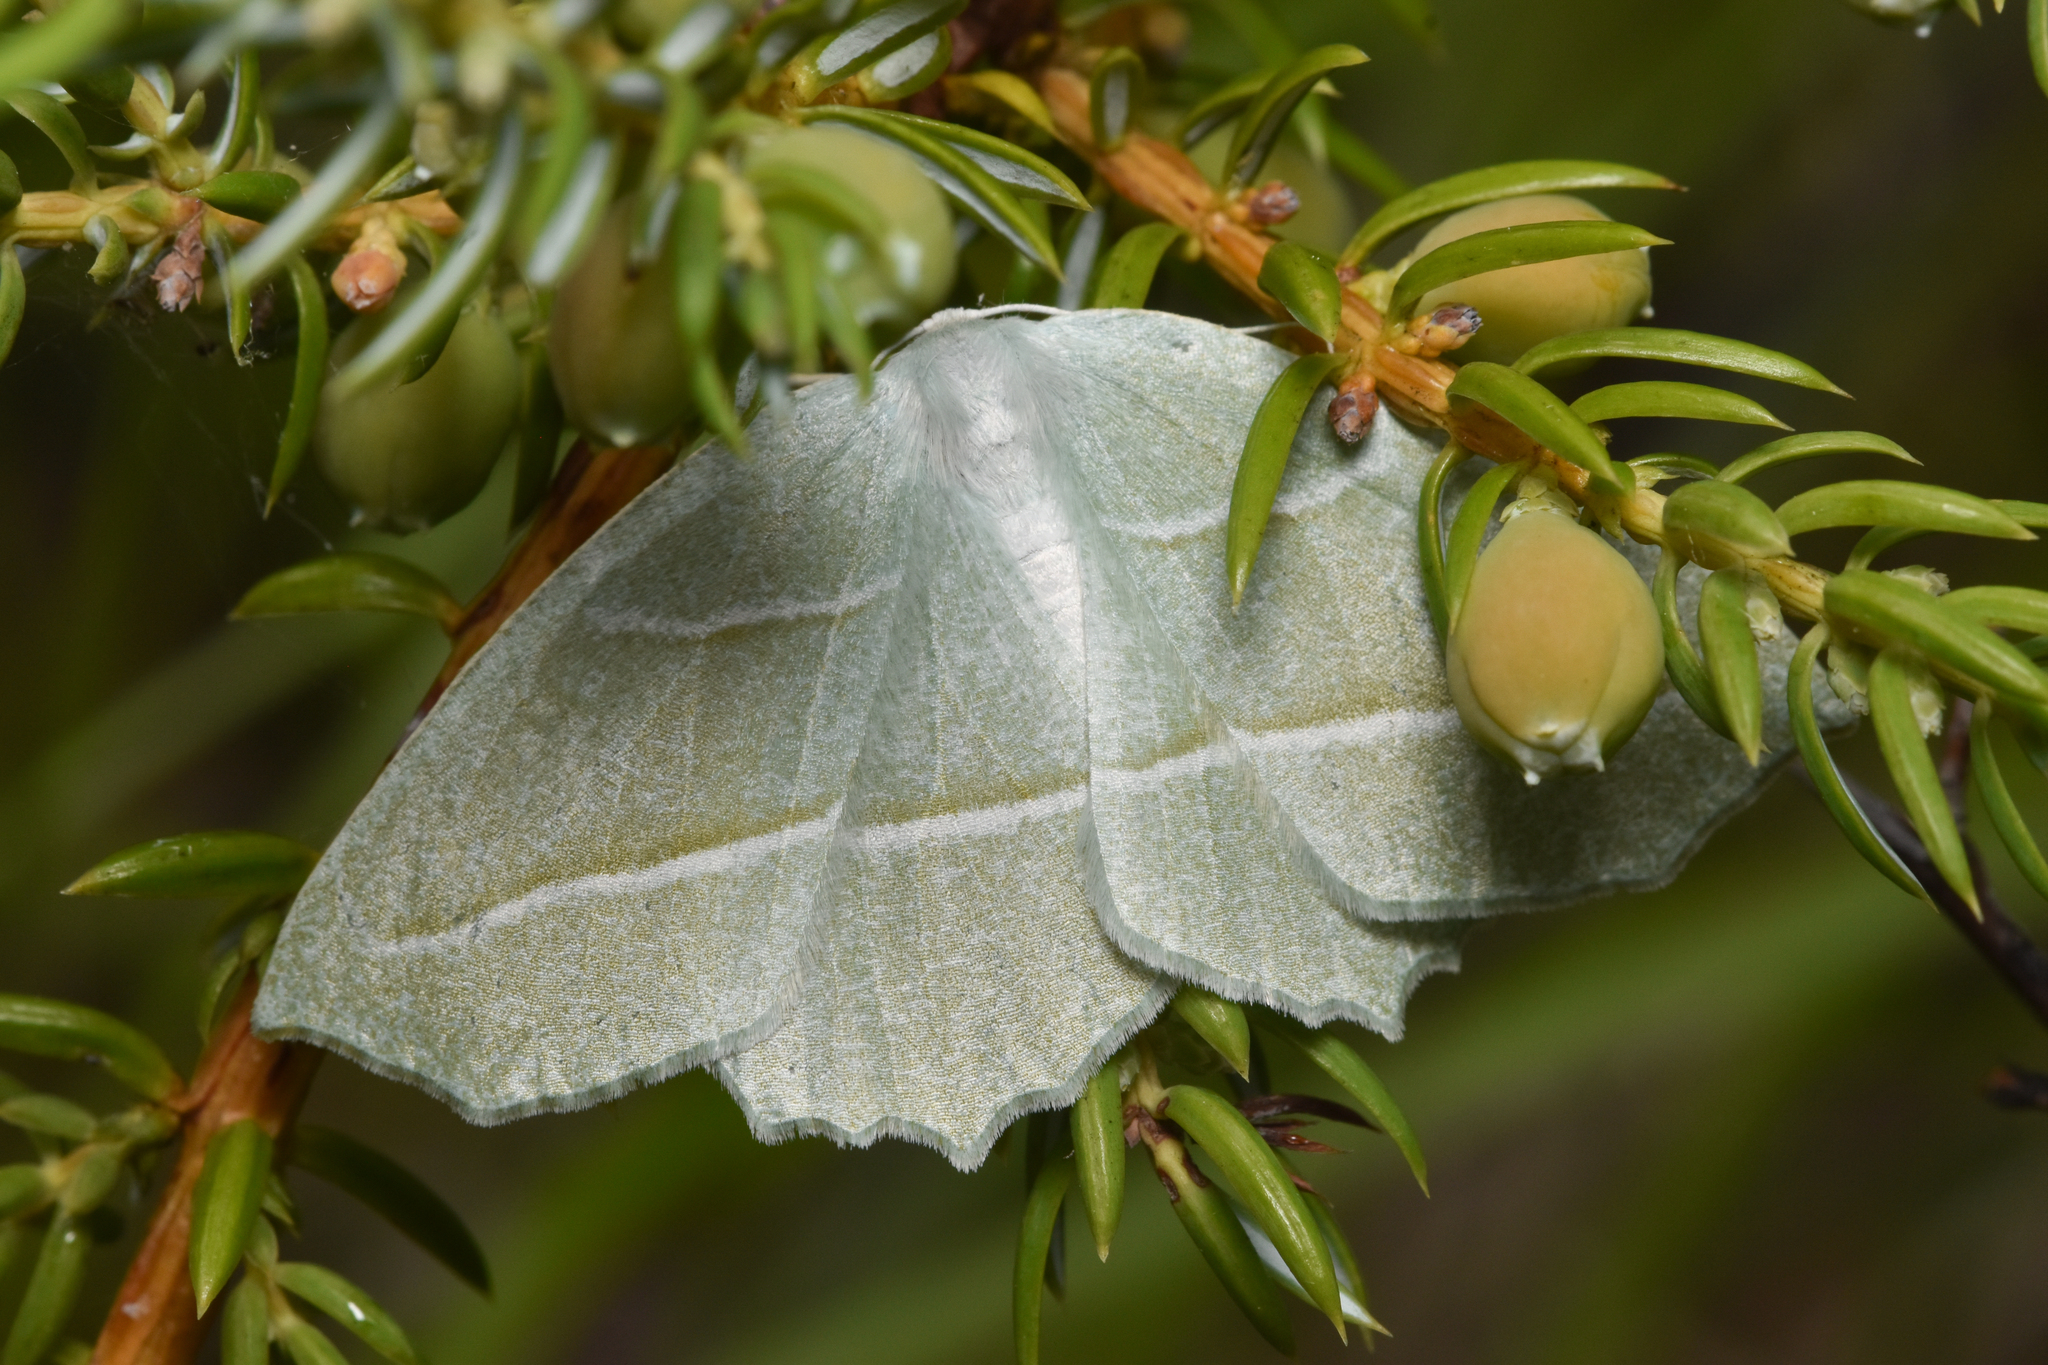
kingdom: Animalia
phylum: Arthropoda
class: Insecta
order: Lepidoptera
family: Geometridae
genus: Campaea
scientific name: Campaea perlata
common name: Fringed looper
